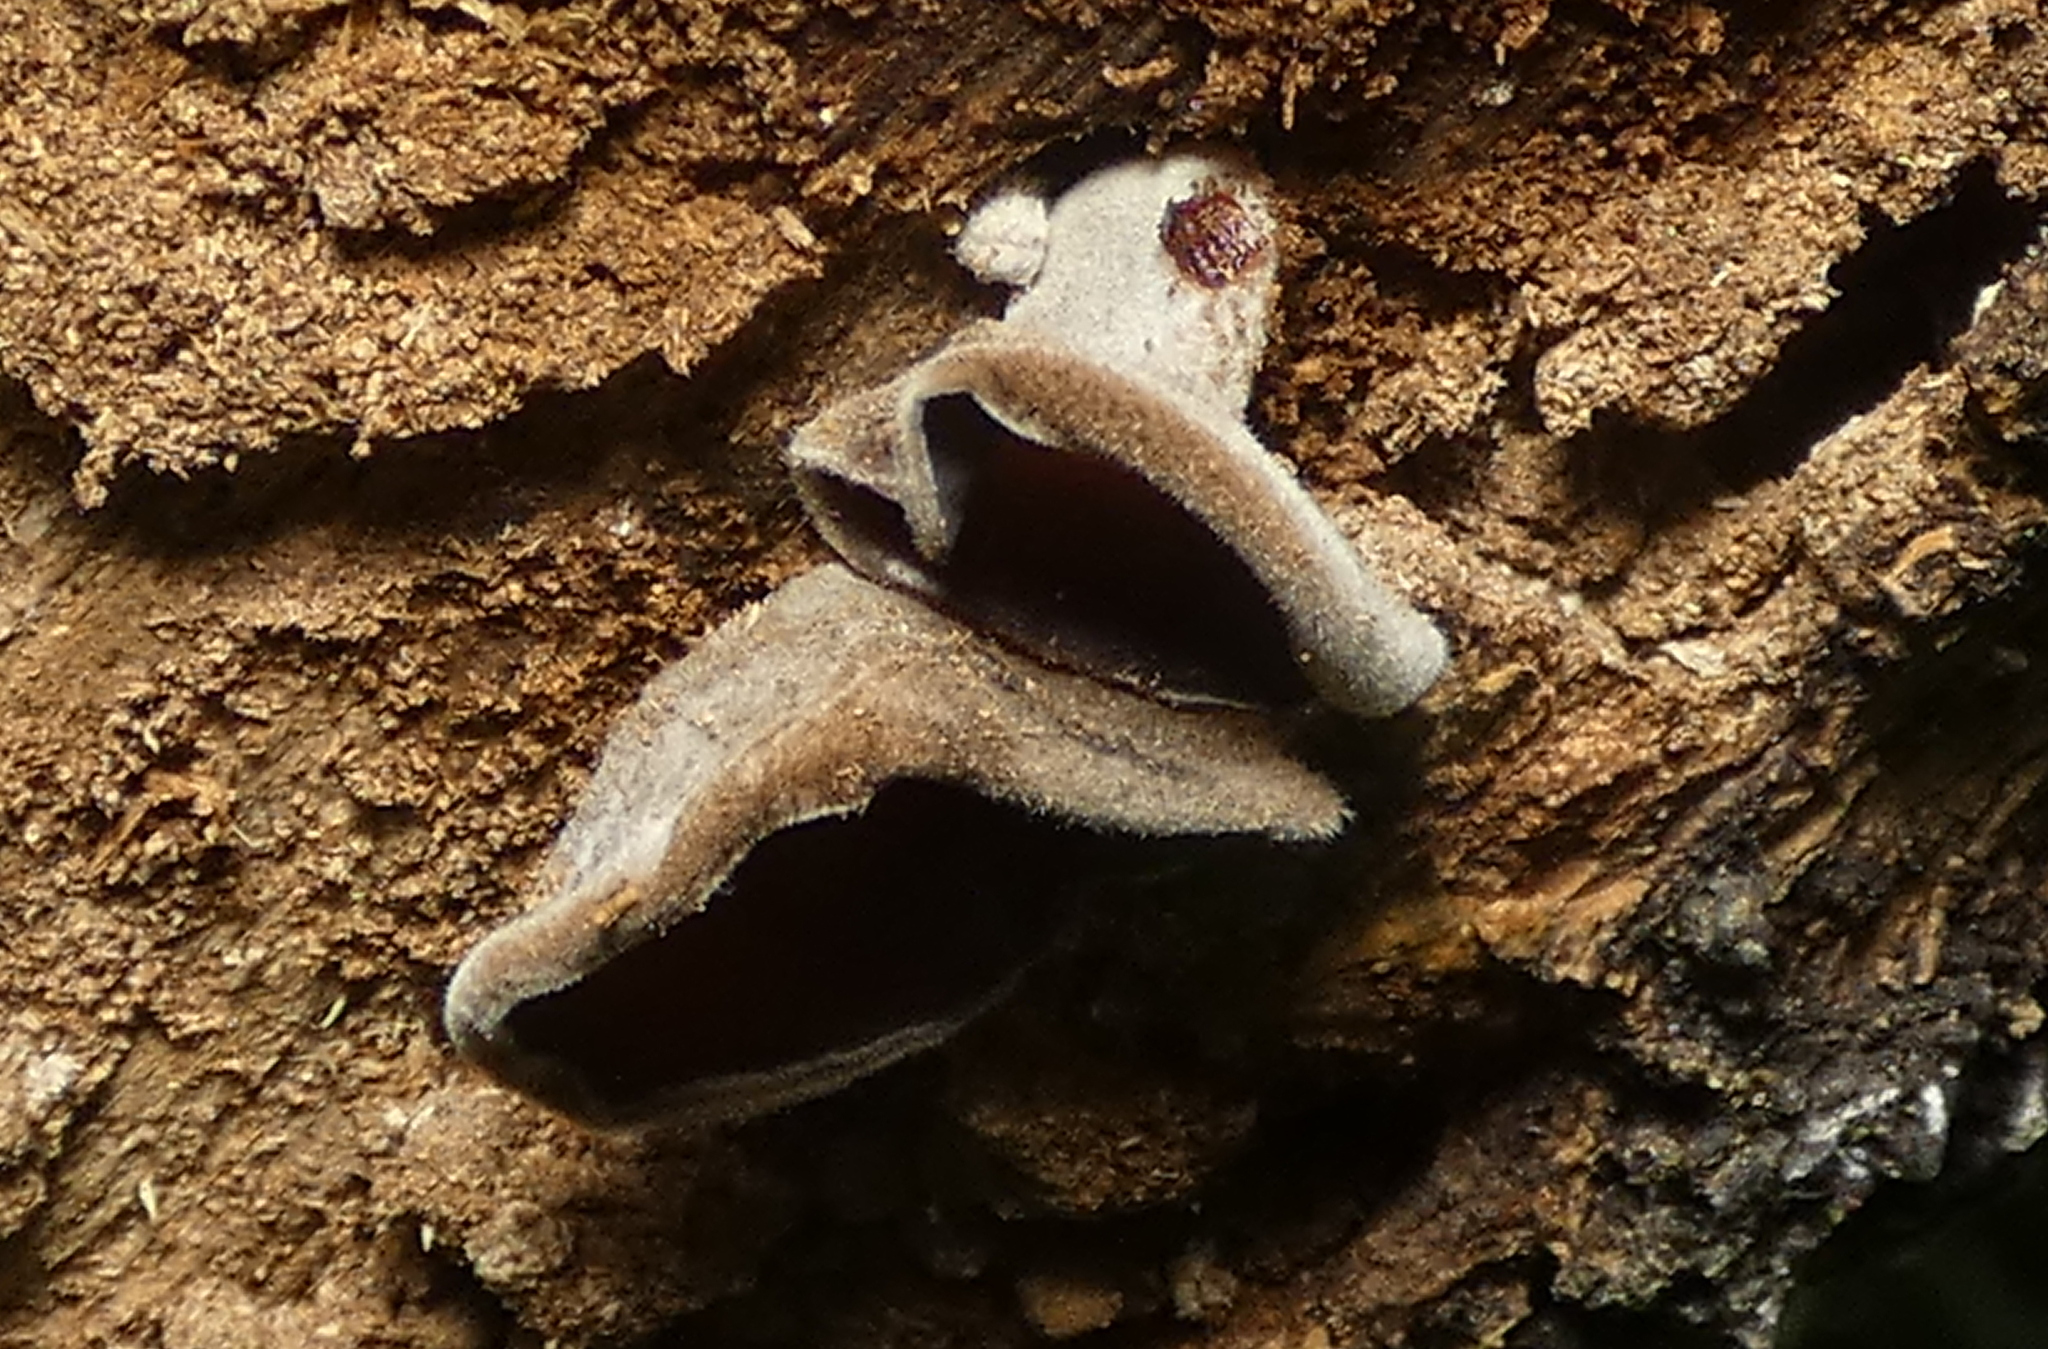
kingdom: Fungi
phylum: Basidiomycota
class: Agaricomycetes
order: Auriculariales
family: Auriculariaceae
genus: Auricularia
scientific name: Auricularia nigricans
